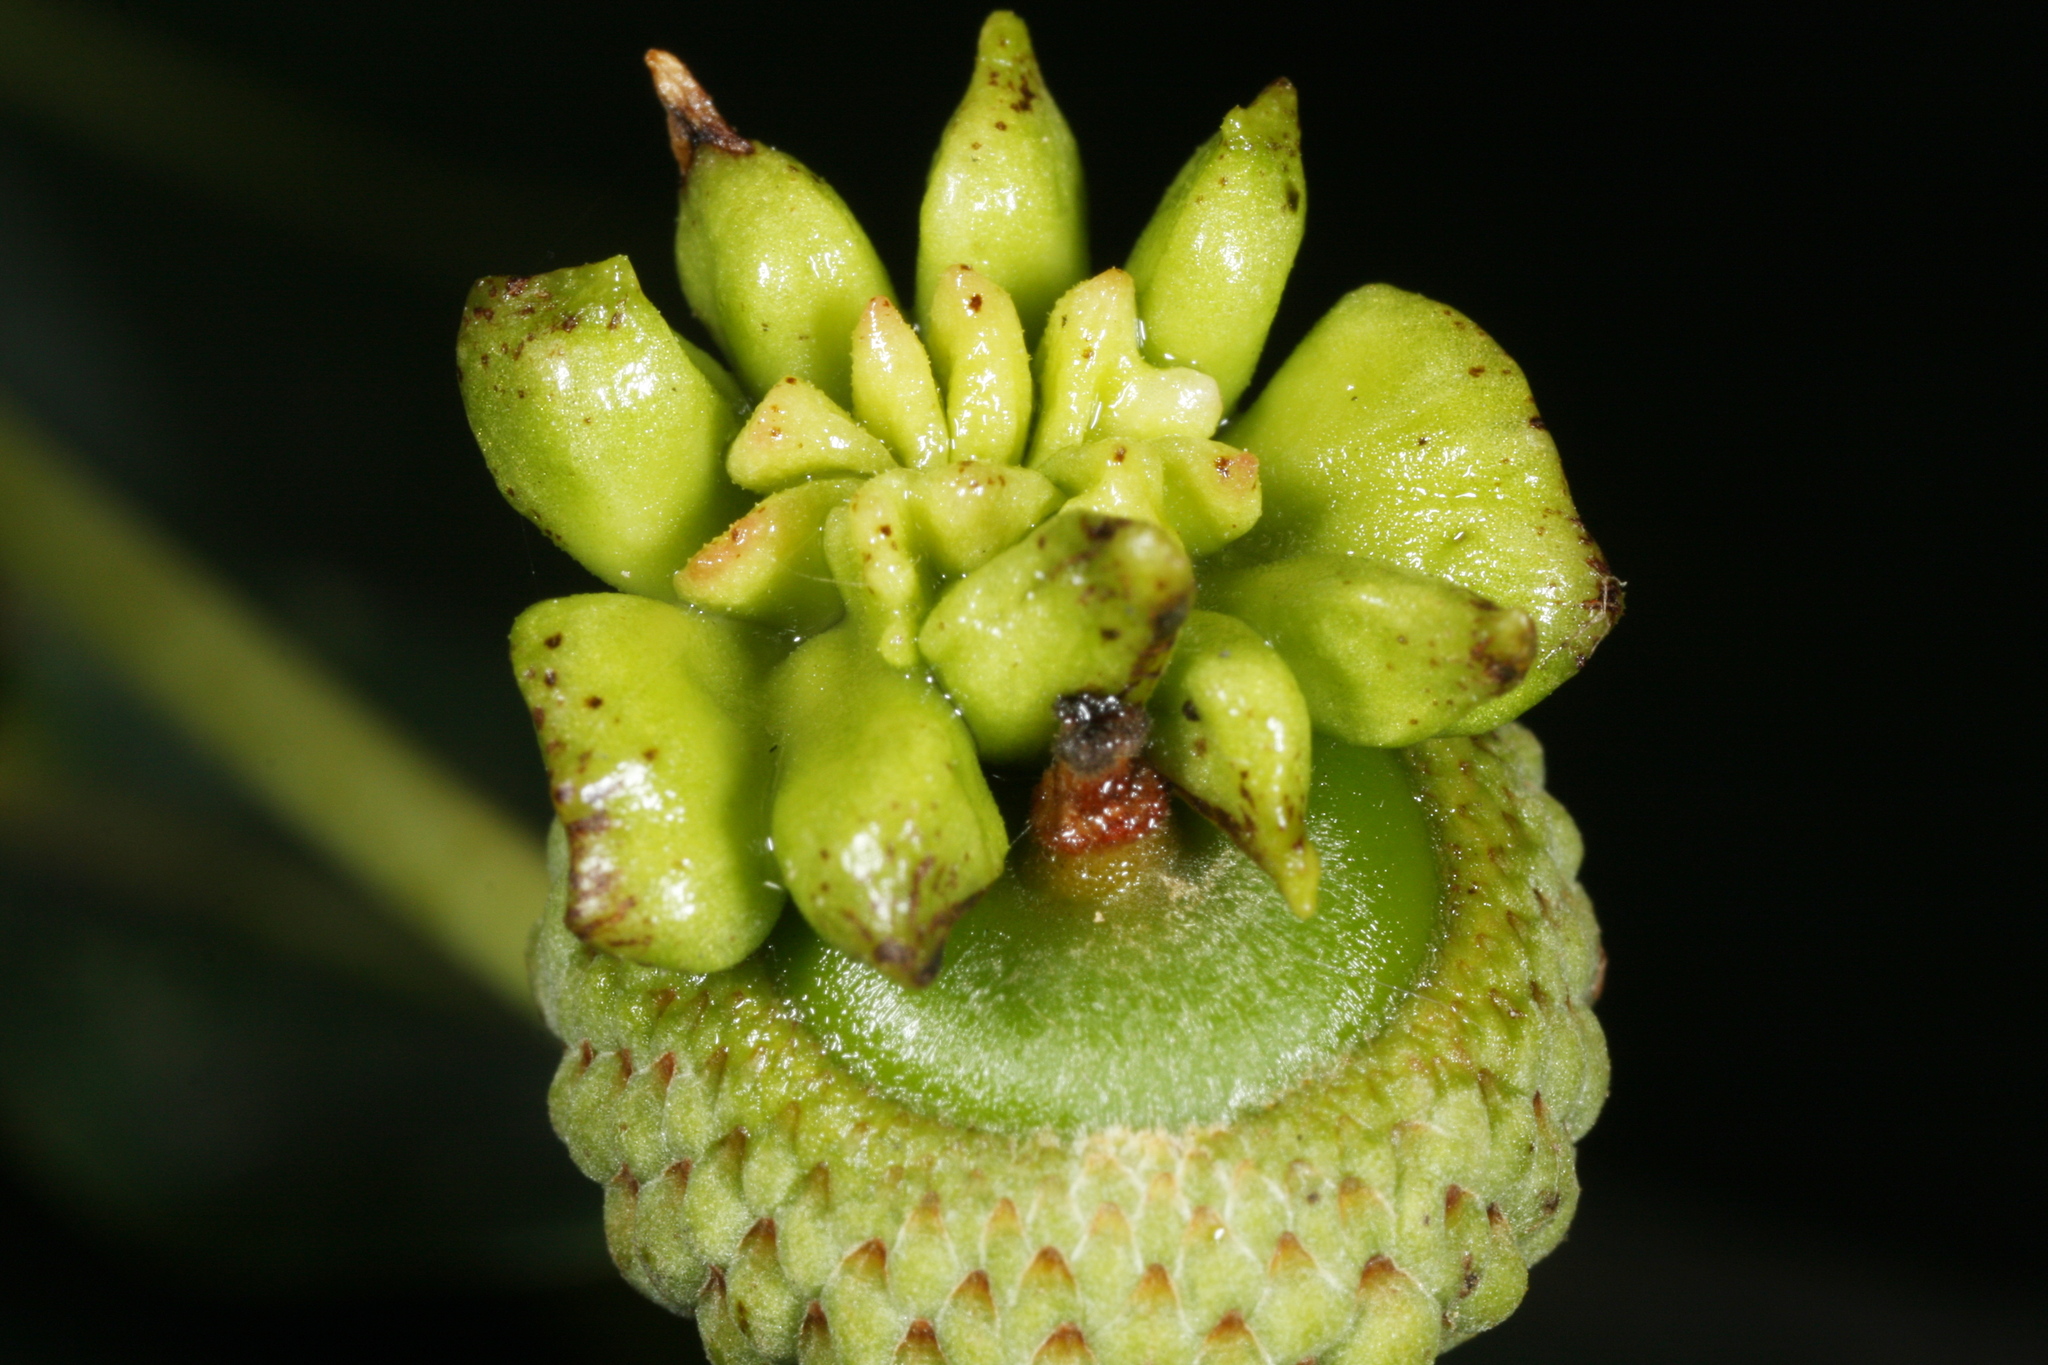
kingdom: Animalia
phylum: Arthropoda
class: Insecta
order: Hymenoptera
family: Cynipidae
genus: Andricus
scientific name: Andricus quercuscalicis
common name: Knopper gall
